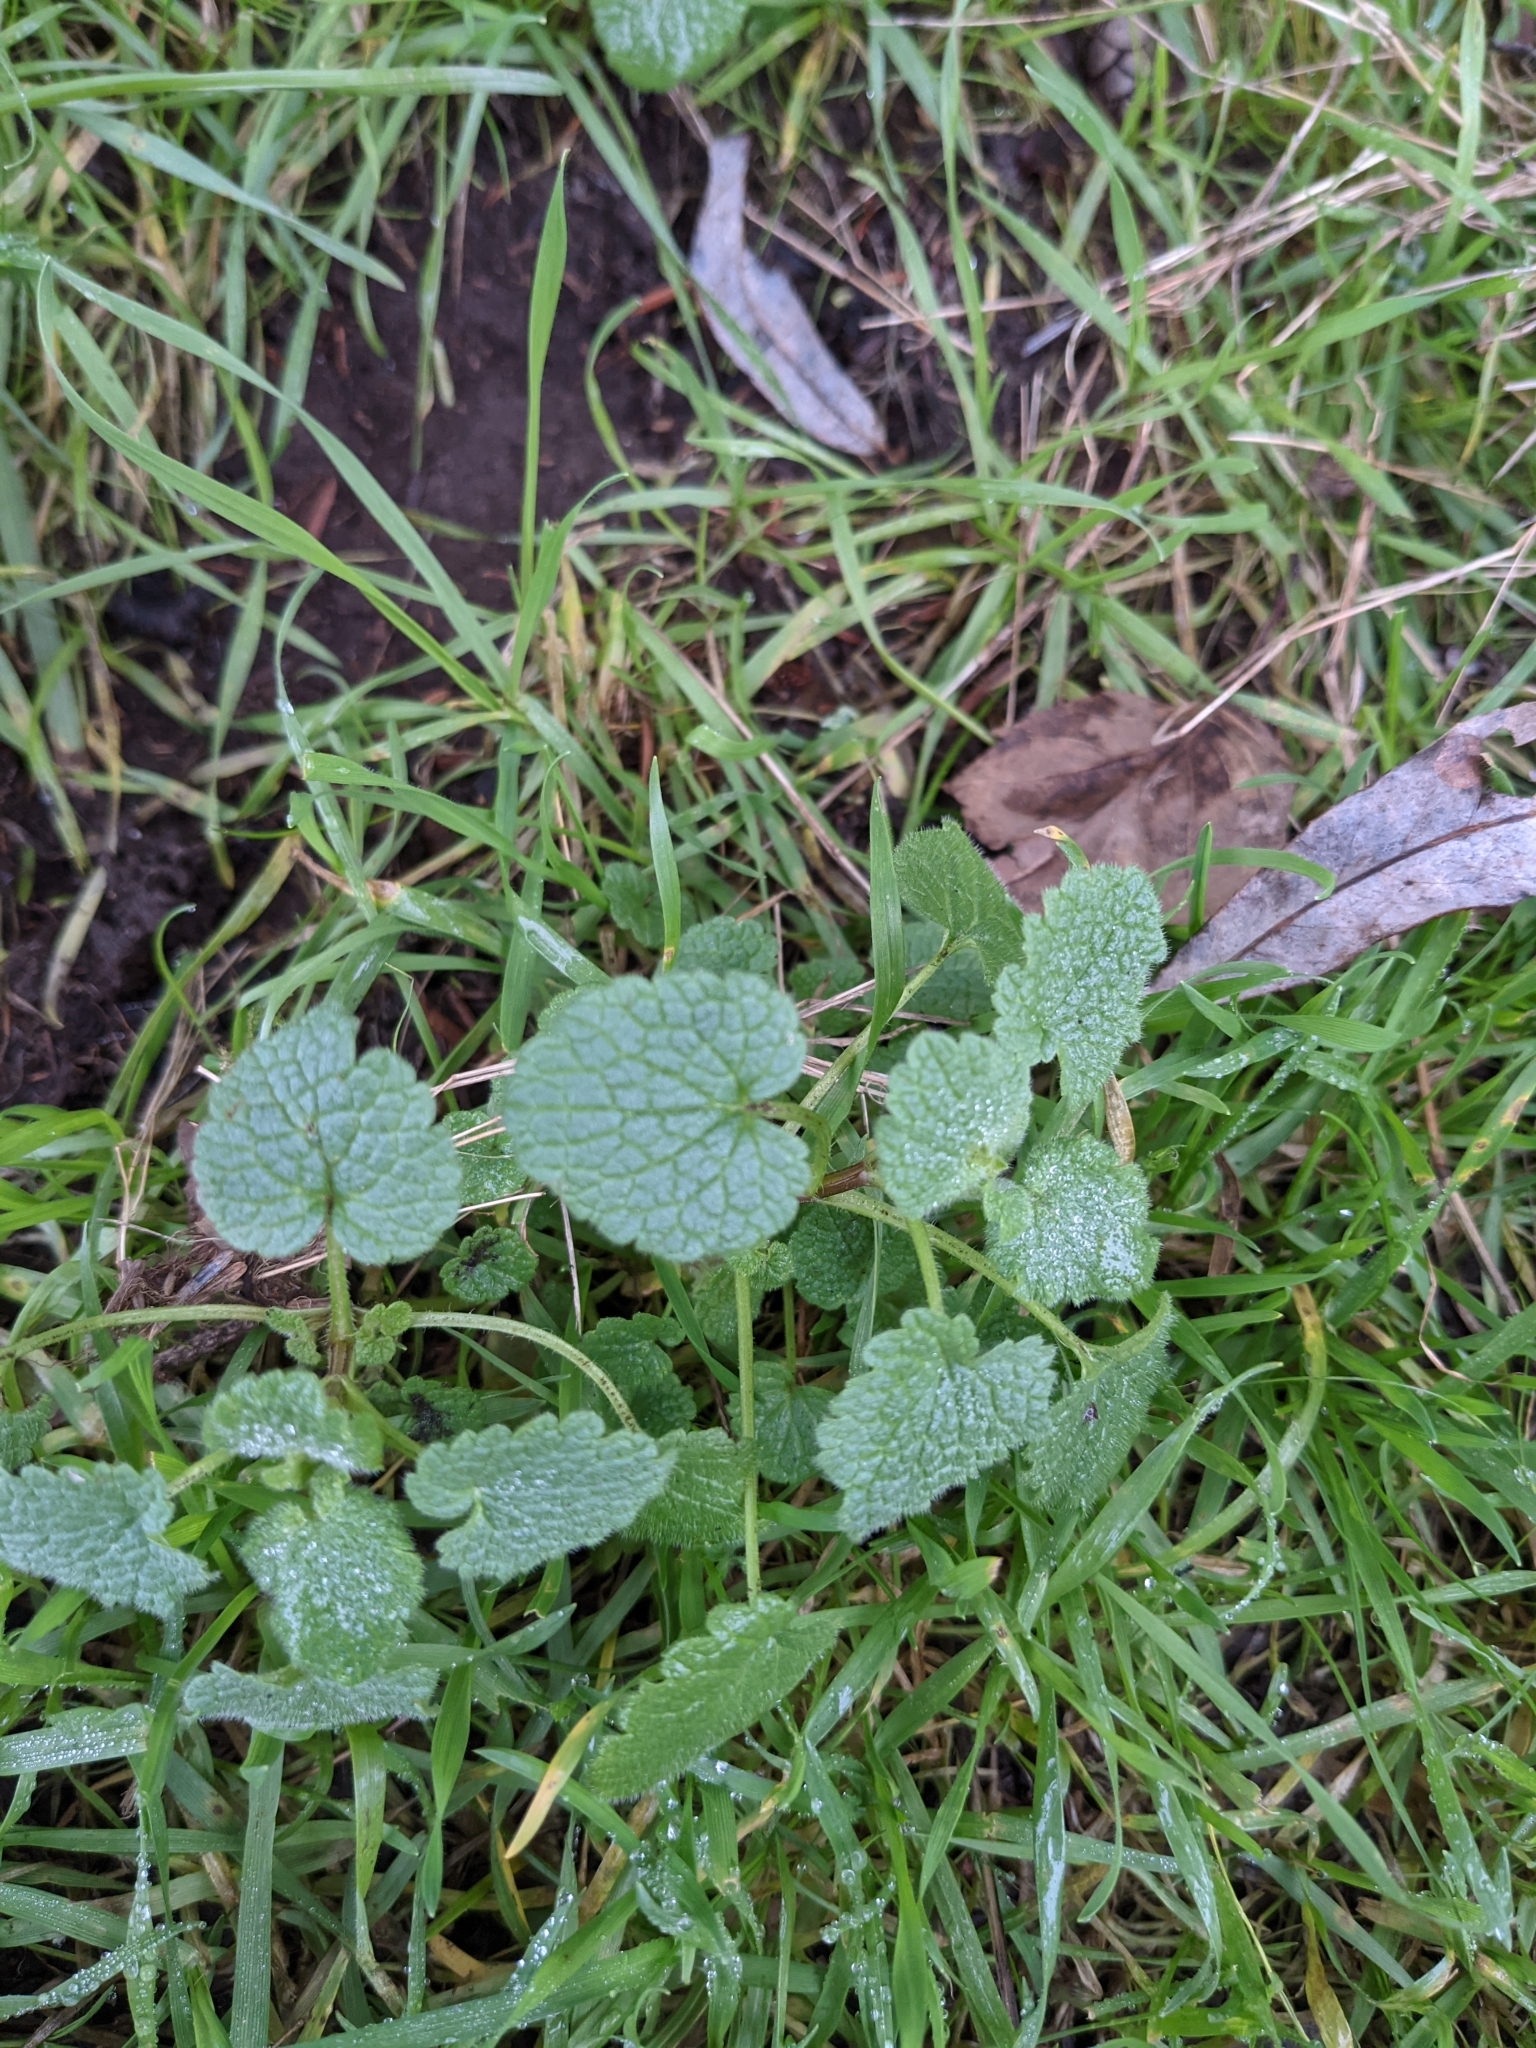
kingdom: Plantae
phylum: Tracheophyta
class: Magnoliopsida
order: Lamiales
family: Lamiaceae
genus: Lamium
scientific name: Lamium purpureum
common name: Red dead-nettle
